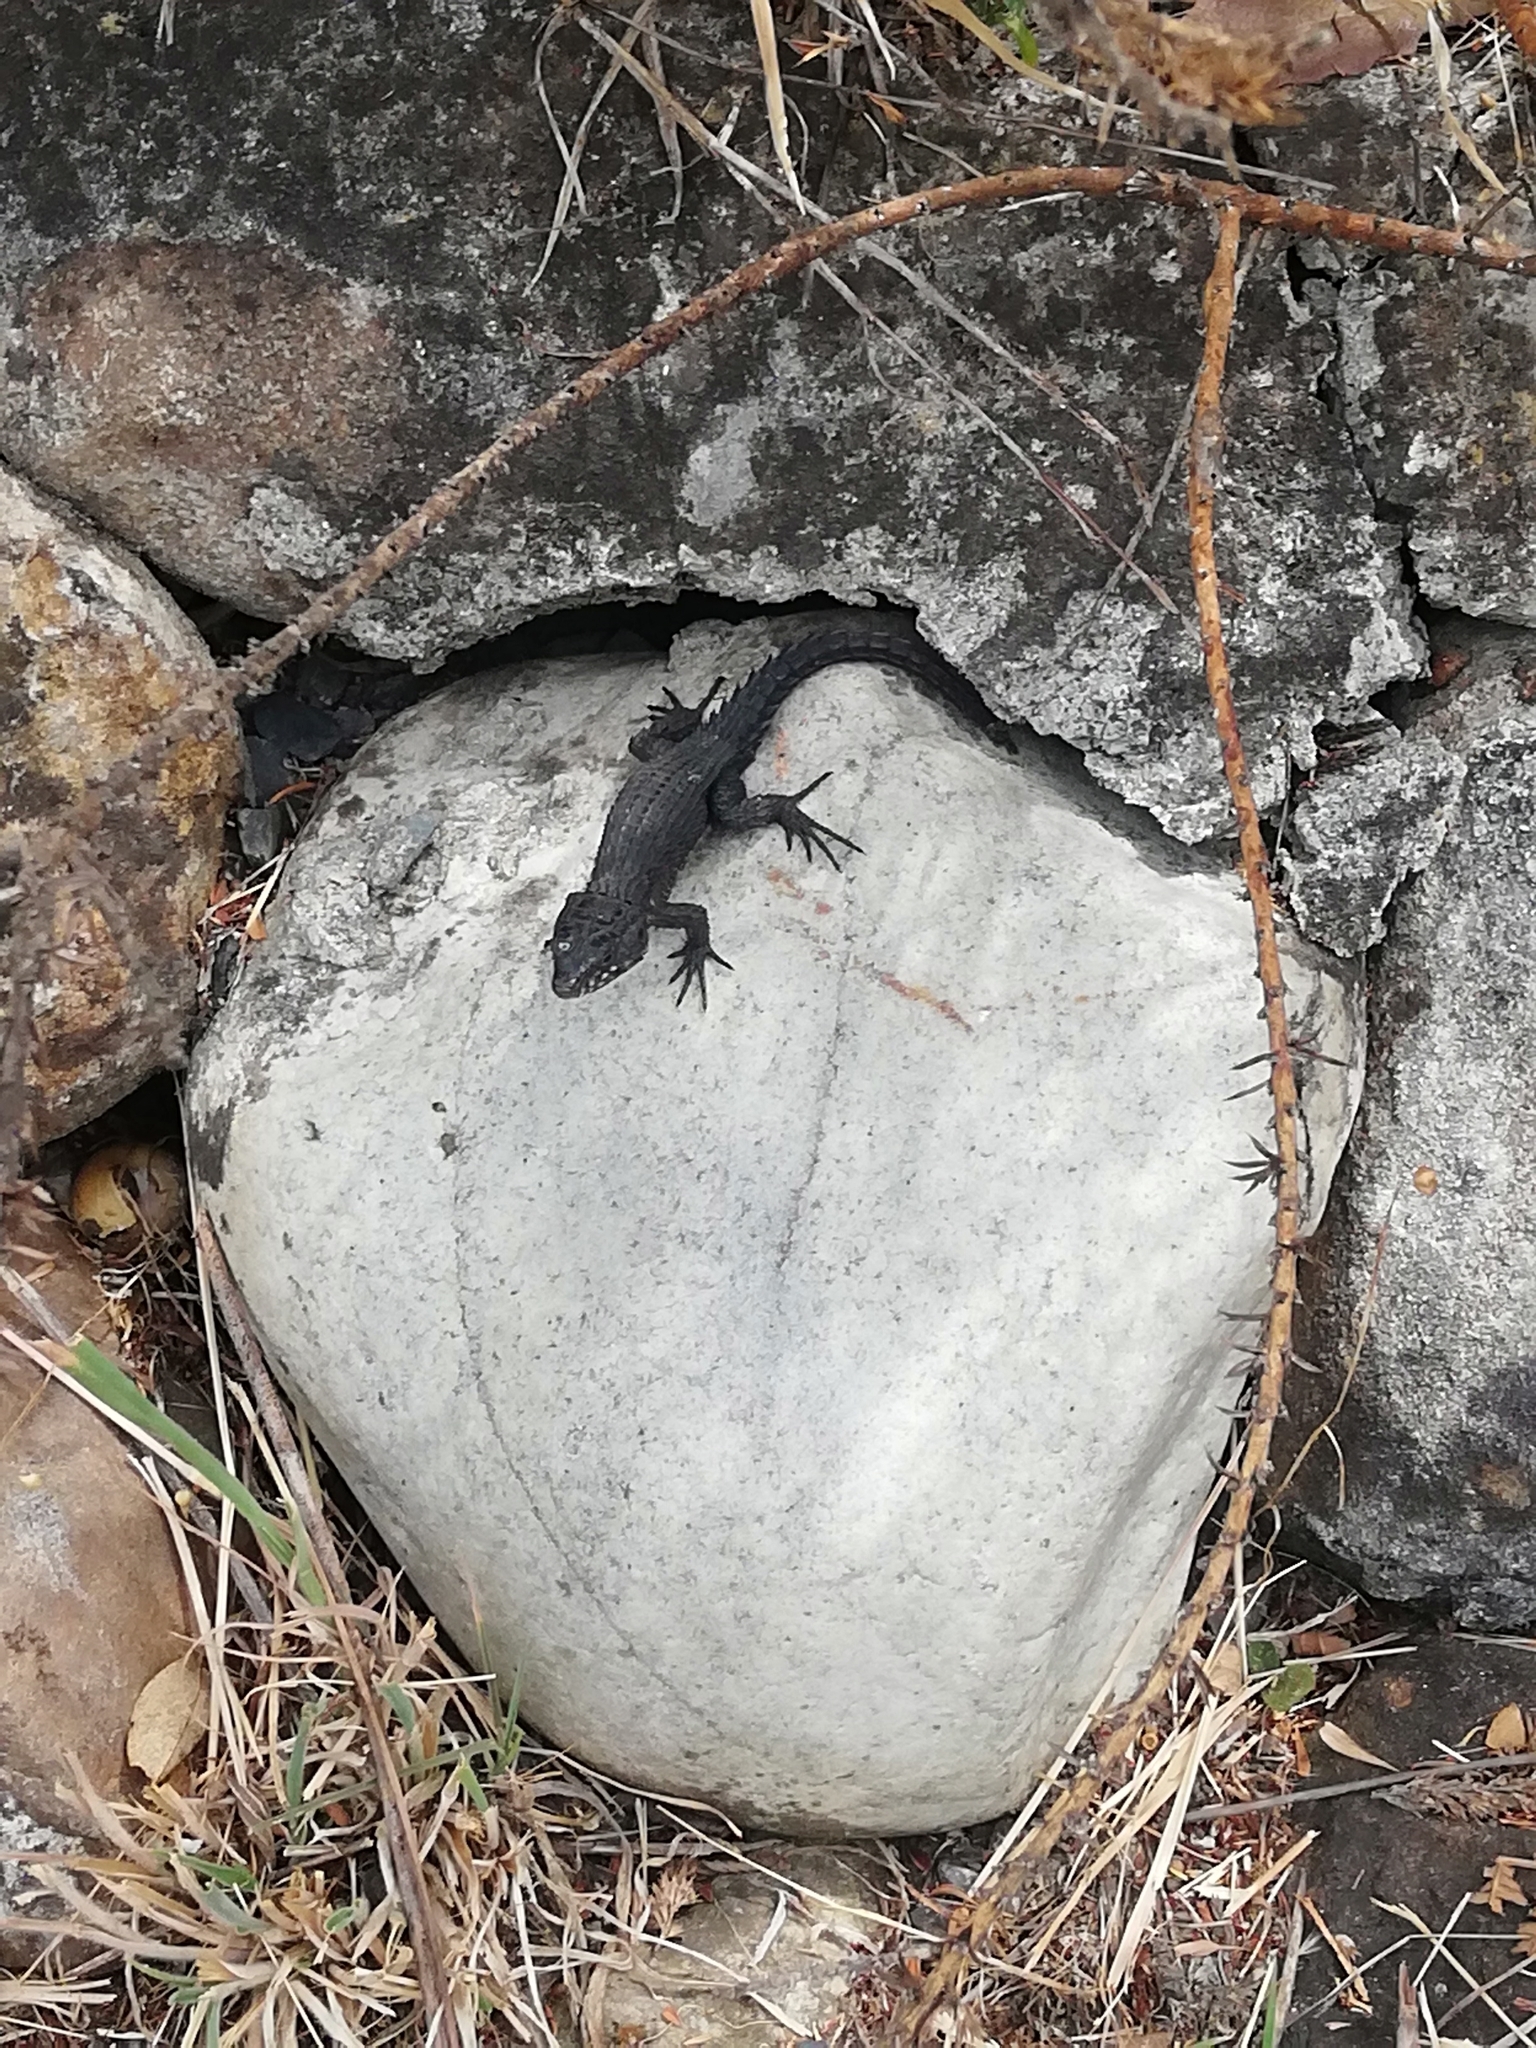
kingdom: Animalia
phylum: Chordata
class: Squamata
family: Cordylidae
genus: Cordylus
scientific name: Cordylus niger
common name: Black girdled lizard
